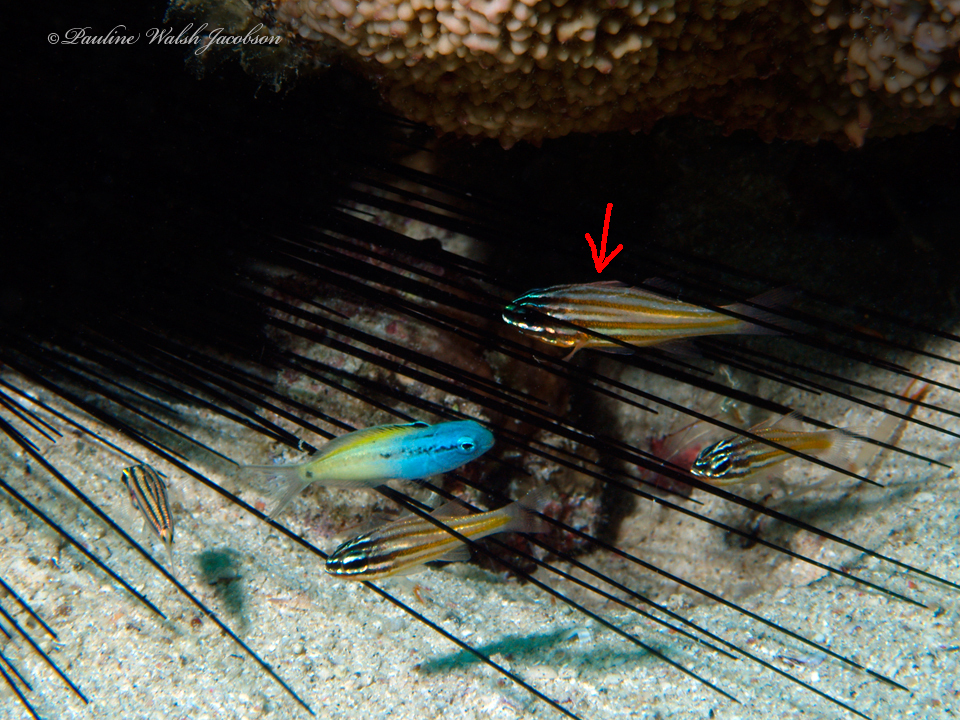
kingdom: Animalia
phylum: Chordata
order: Perciformes
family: Apogonidae
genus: Ostorhinchus
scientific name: Ostorhinchus cyanosoma
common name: Yellow-striped cardinalfish
